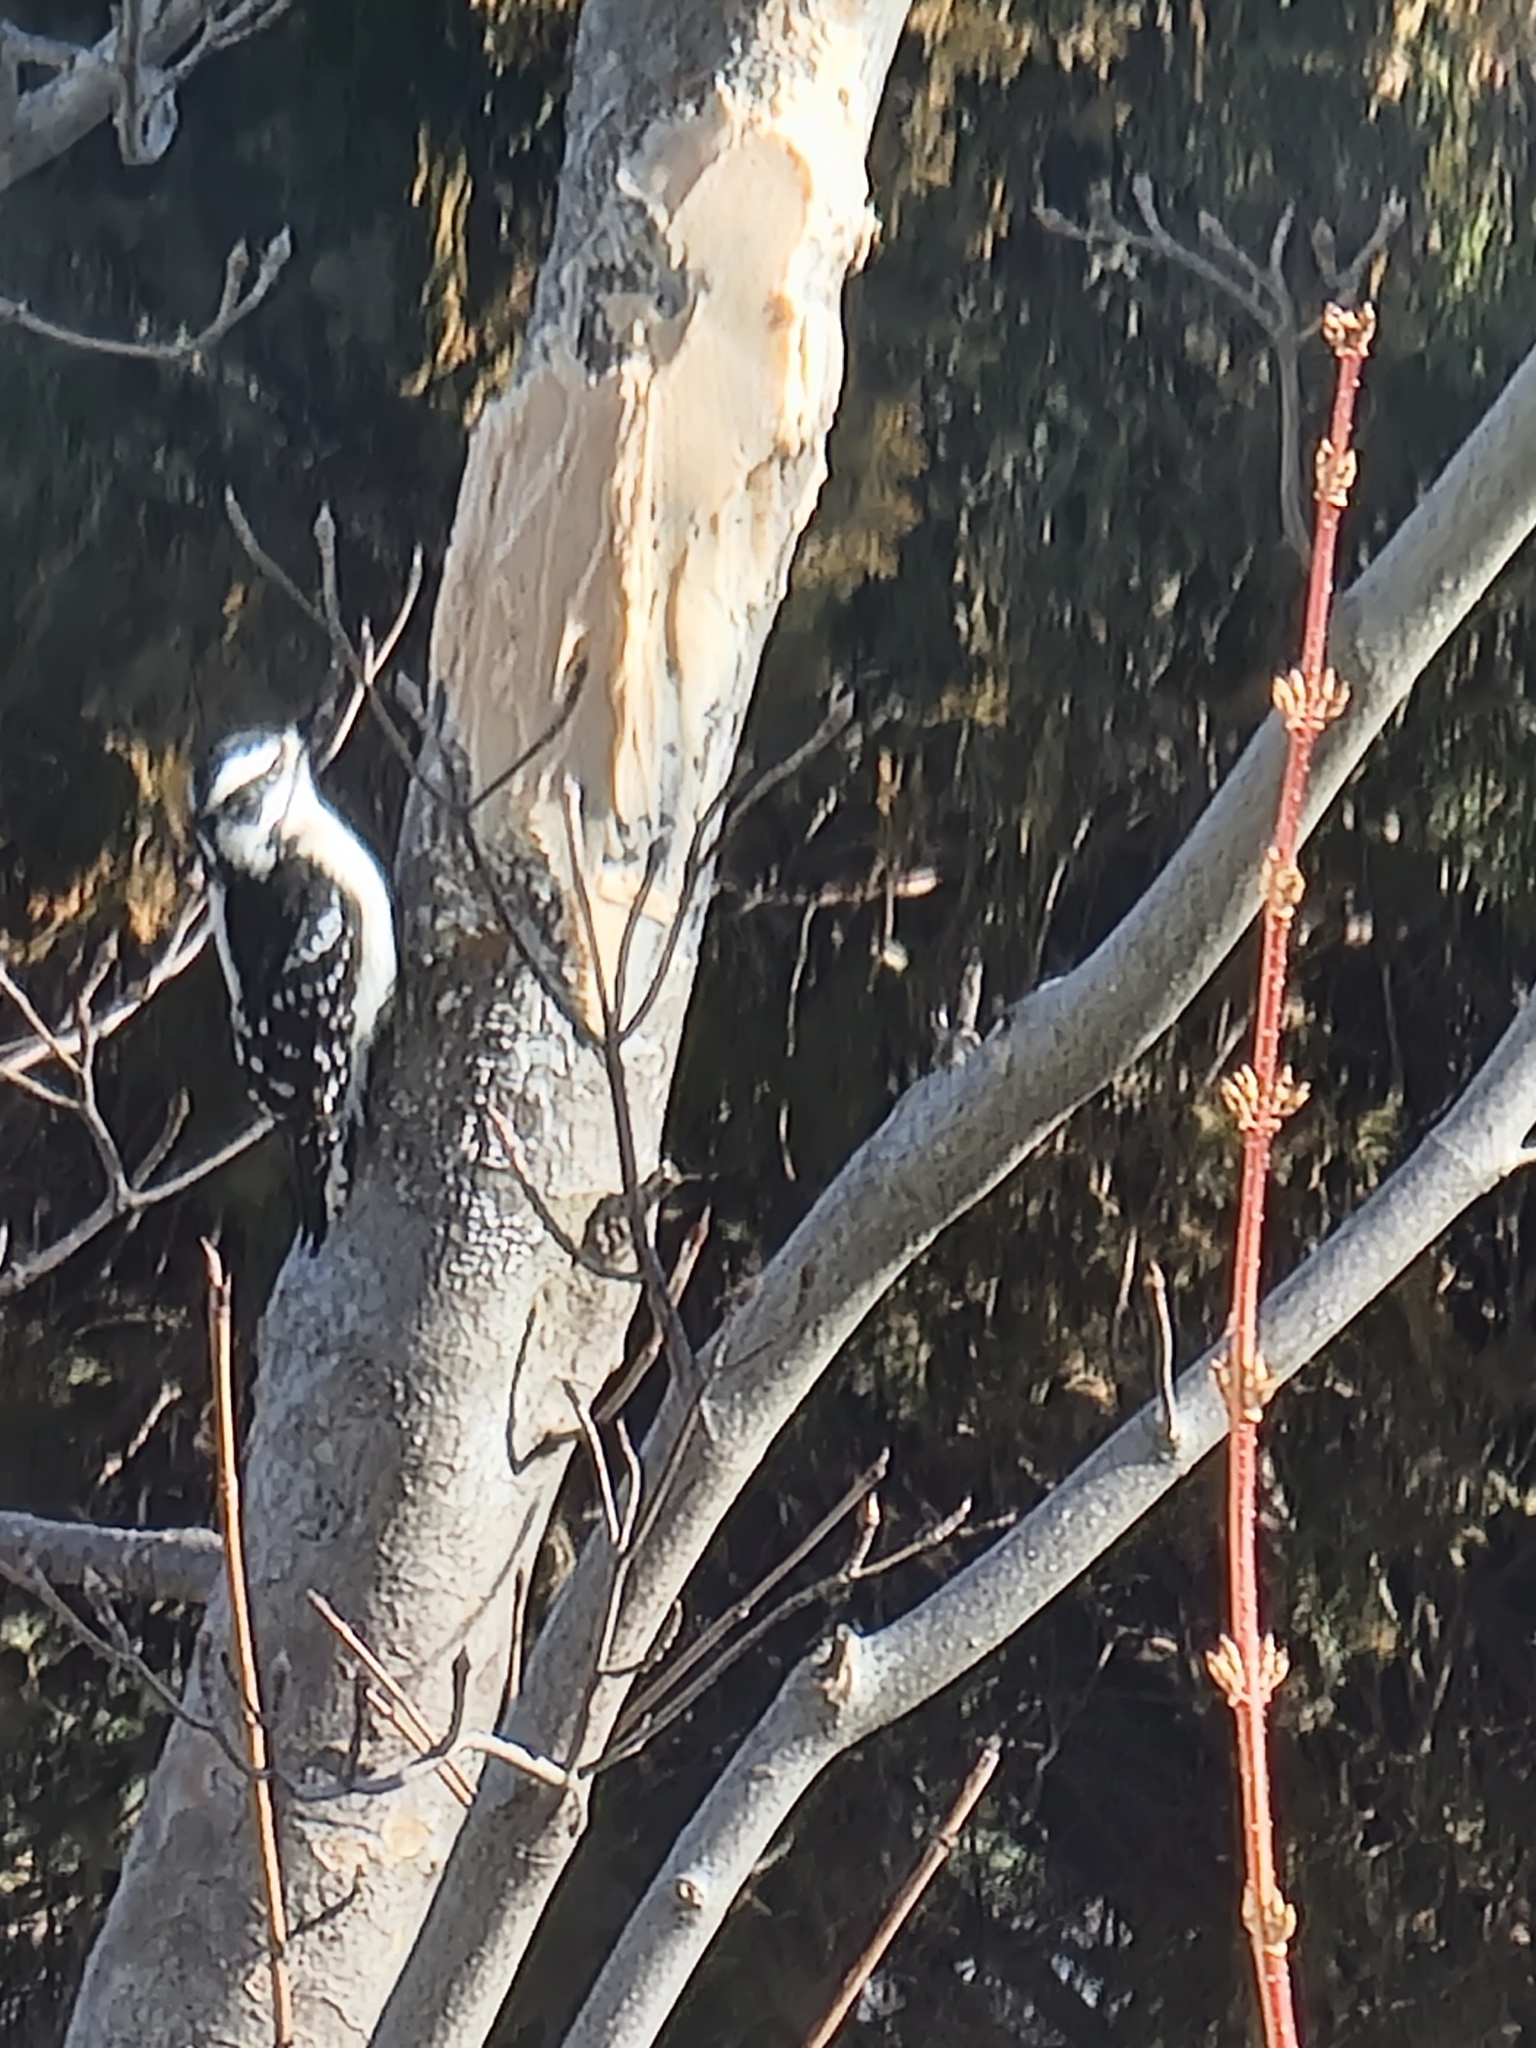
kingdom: Animalia
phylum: Chordata
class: Aves
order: Piciformes
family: Picidae
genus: Dryobates
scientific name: Dryobates pubescens
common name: Downy woodpecker
